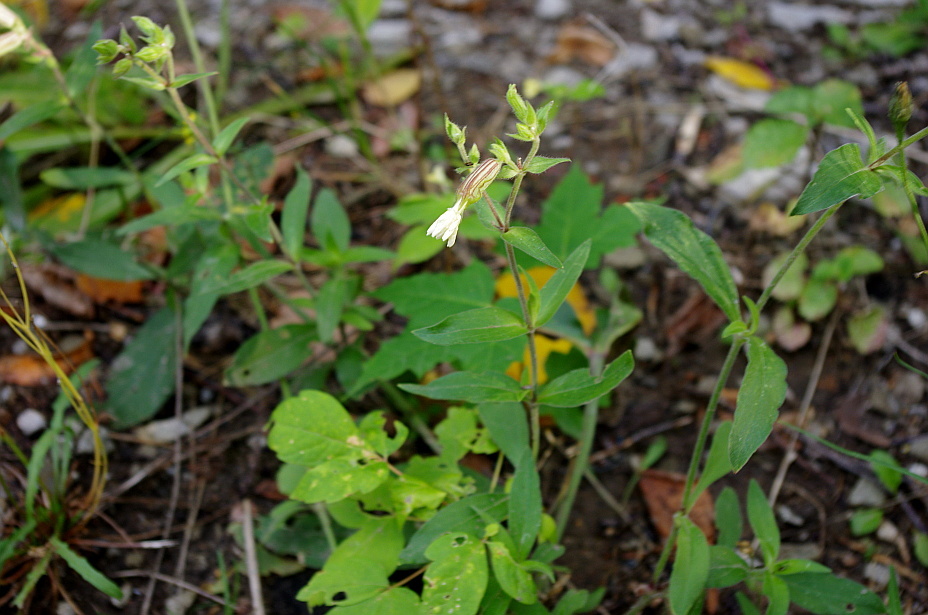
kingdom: Plantae
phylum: Tracheophyta
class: Magnoliopsida
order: Caryophyllales
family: Caryophyllaceae
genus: Silene
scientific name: Silene latifolia
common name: White campion
